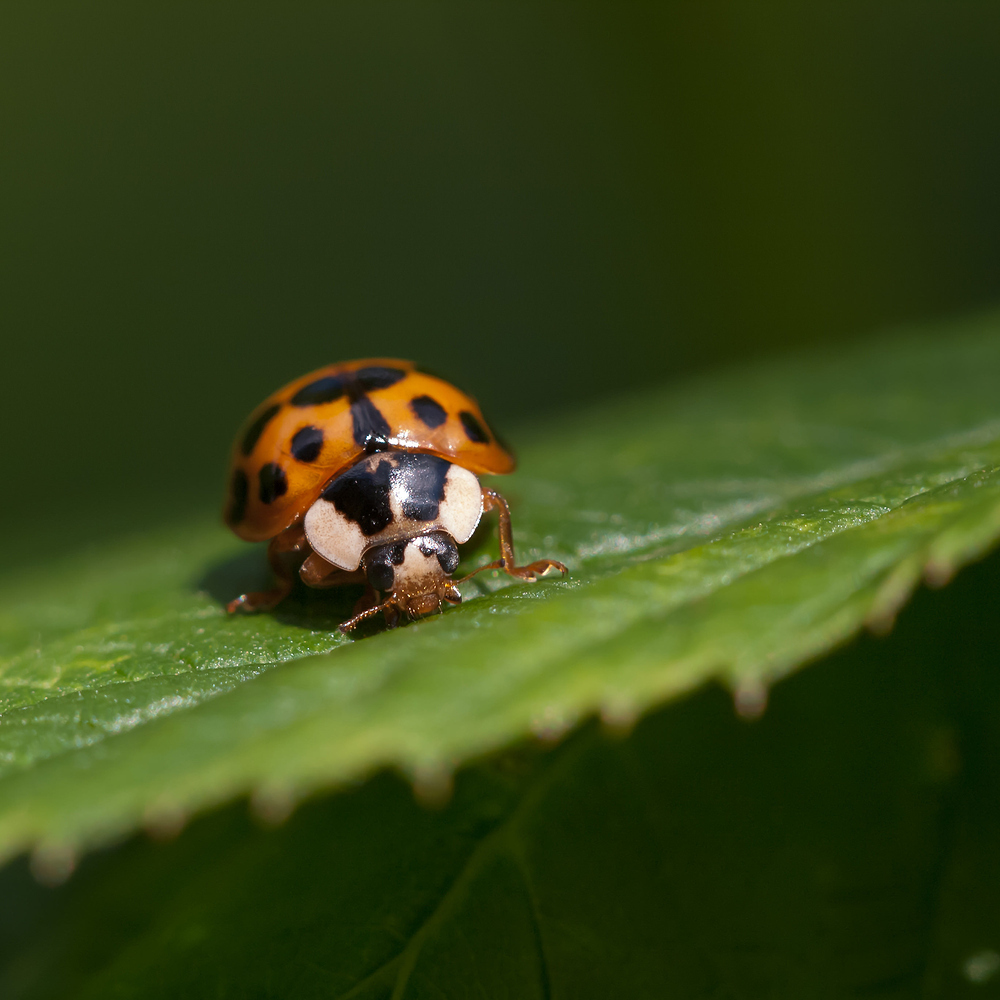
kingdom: Animalia
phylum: Arthropoda
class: Insecta
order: Coleoptera
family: Coccinellidae
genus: Harmonia
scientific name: Harmonia axyridis
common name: Harlequin ladybird
